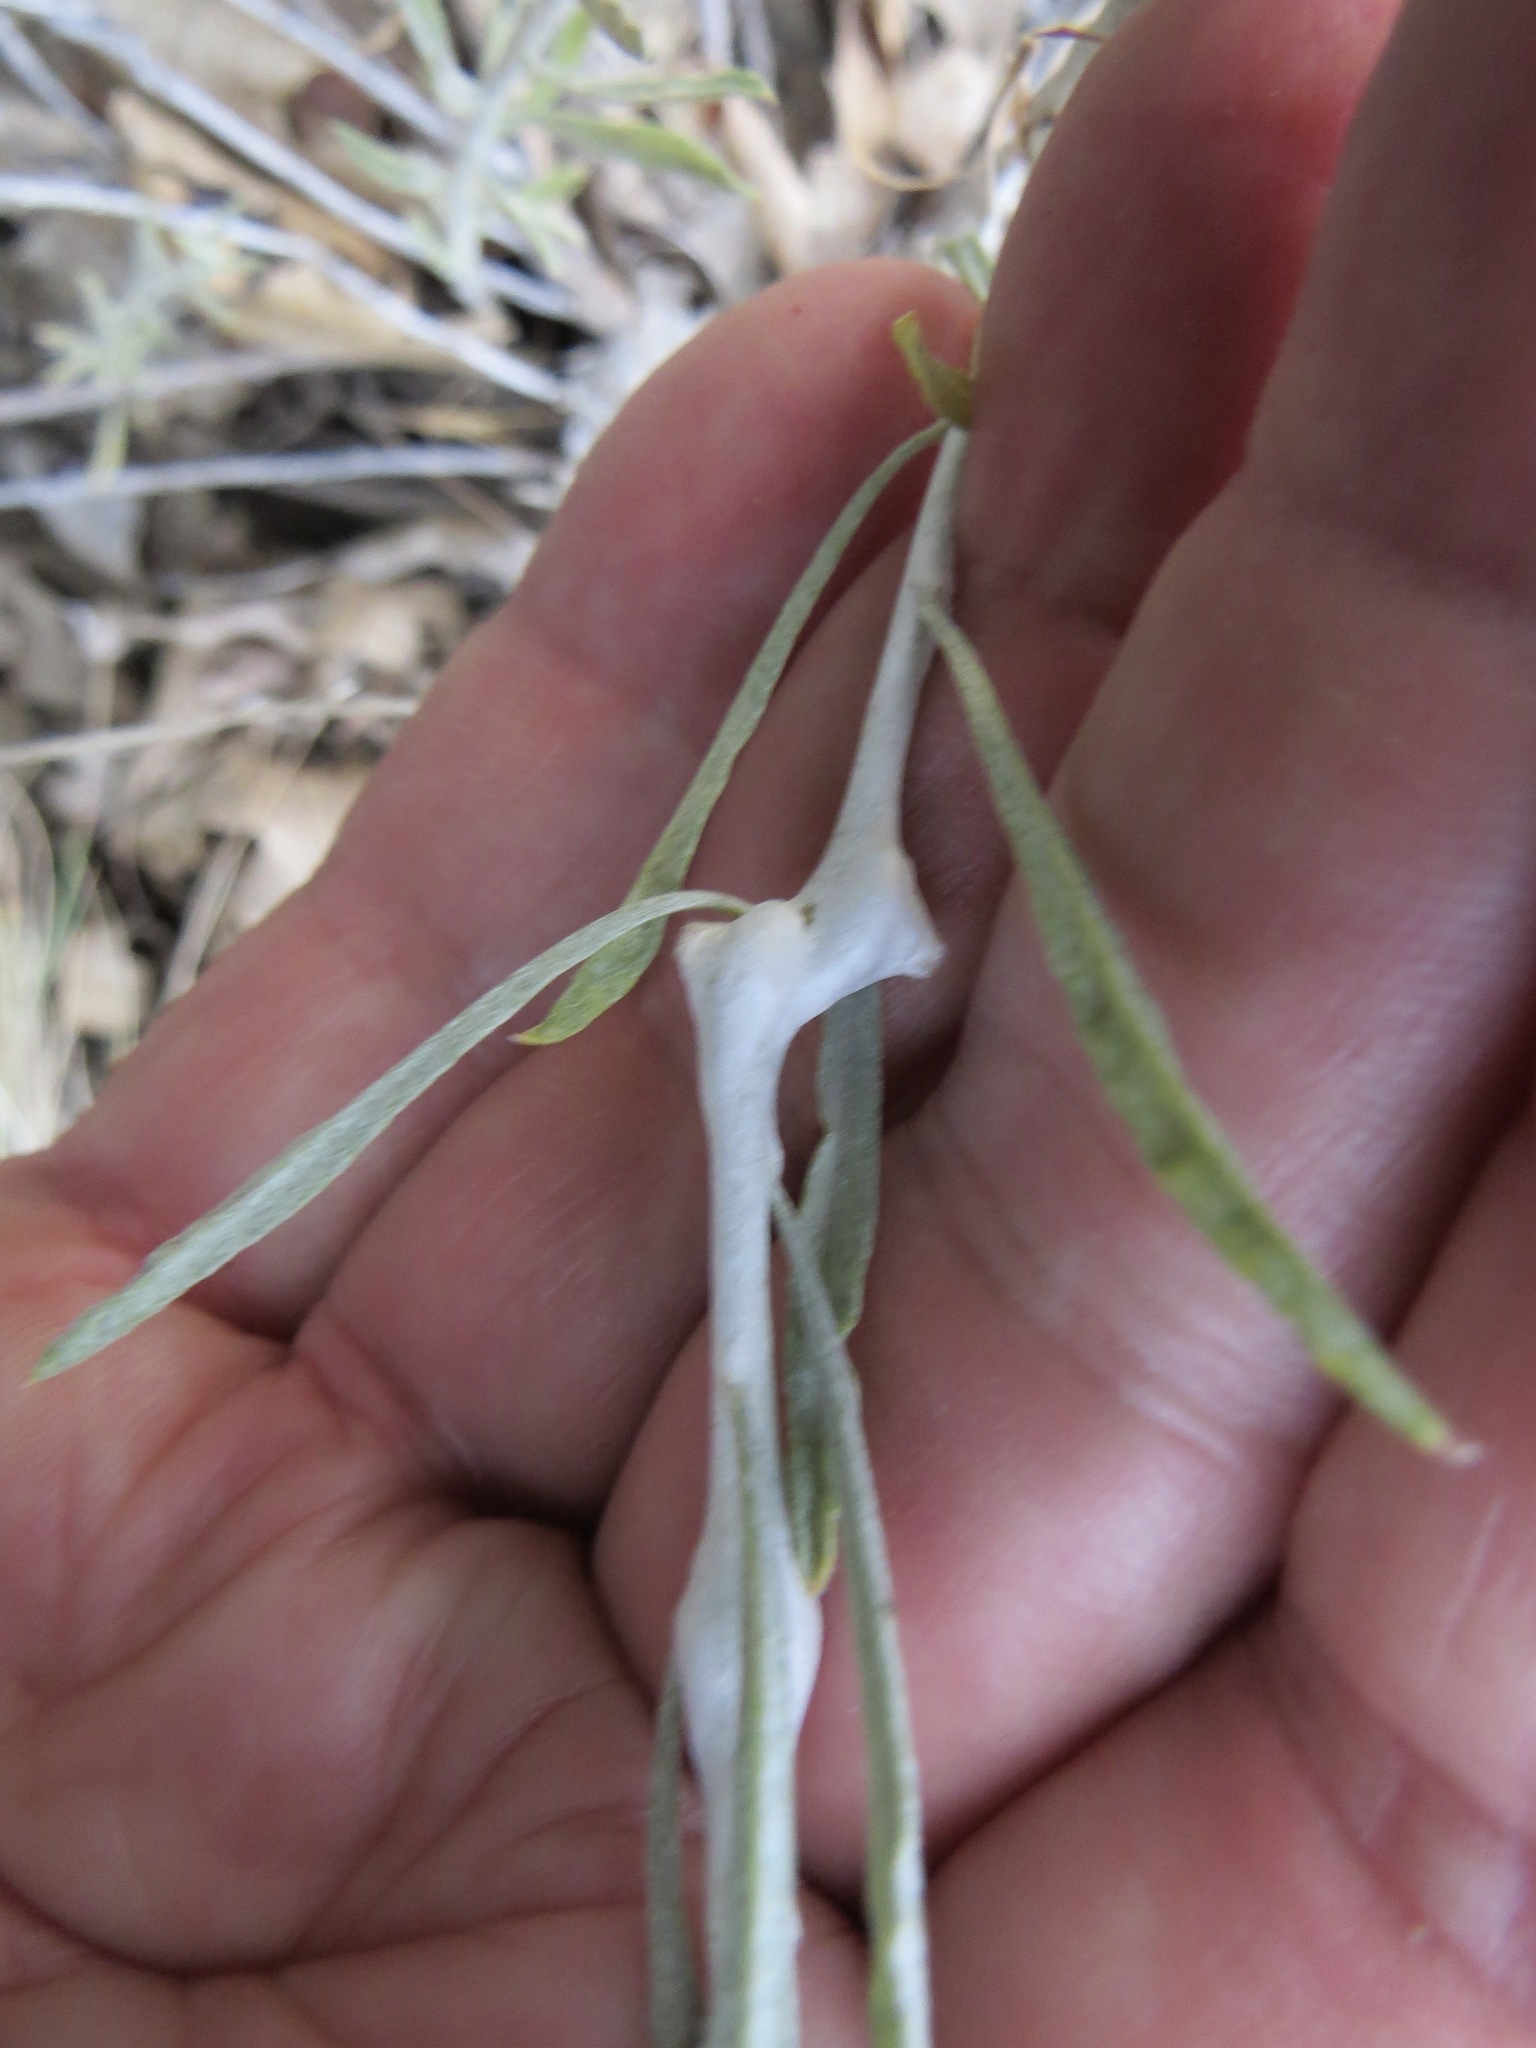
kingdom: Animalia
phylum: Arthropoda
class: Insecta
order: Diptera
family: Cecidomyiidae
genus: Rhopalomyia
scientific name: Rhopalomyia chrysothamni
